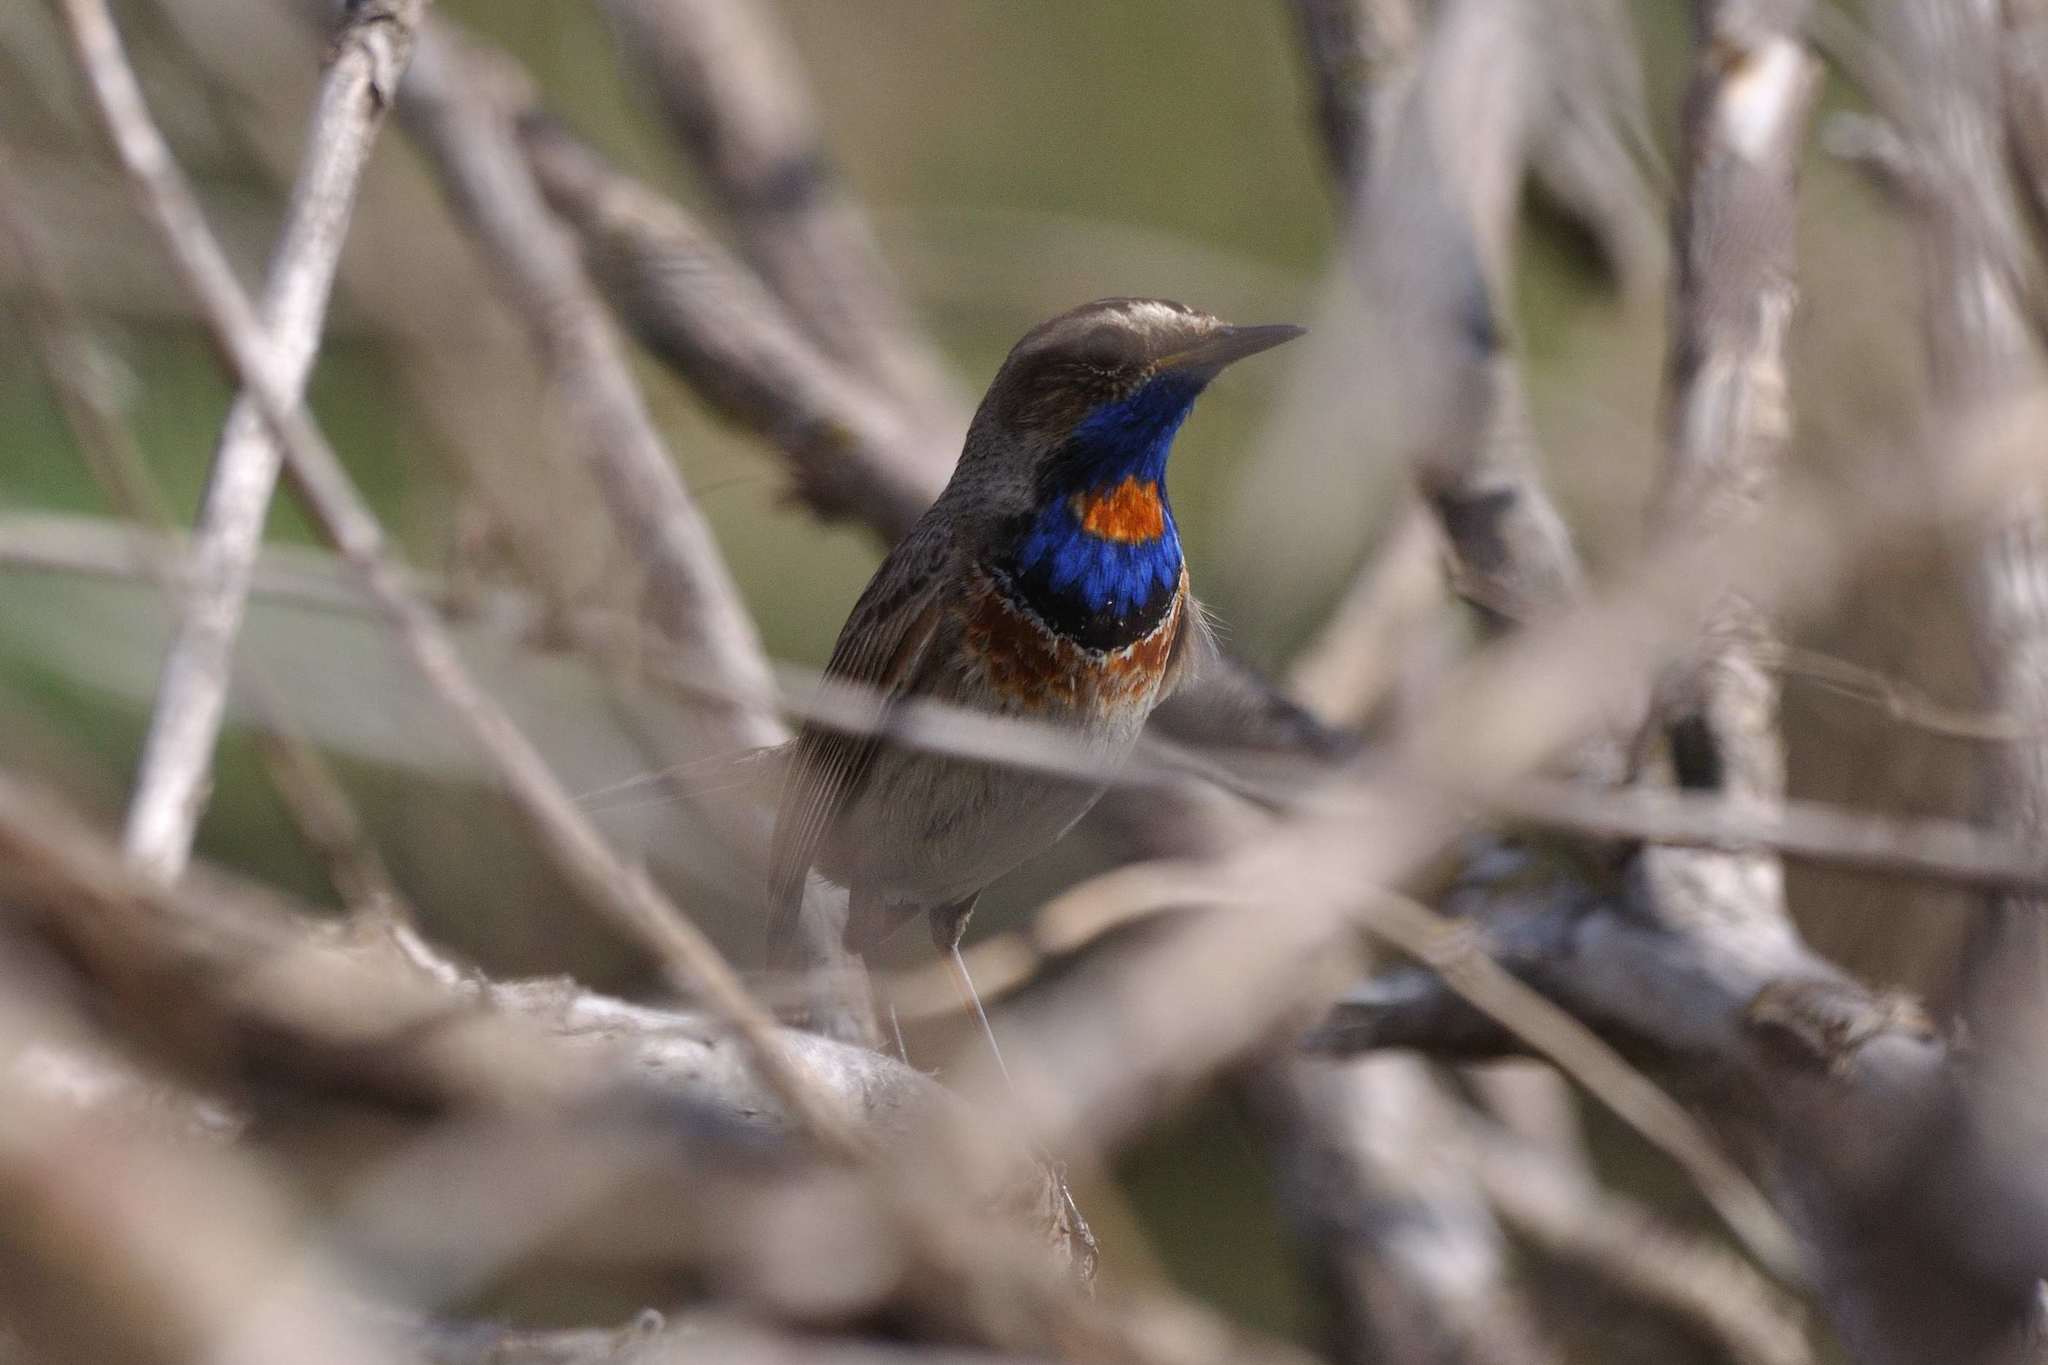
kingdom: Animalia
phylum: Chordata
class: Aves
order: Passeriformes
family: Muscicapidae
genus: Luscinia
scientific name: Luscinia svecica
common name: Bluethroat
